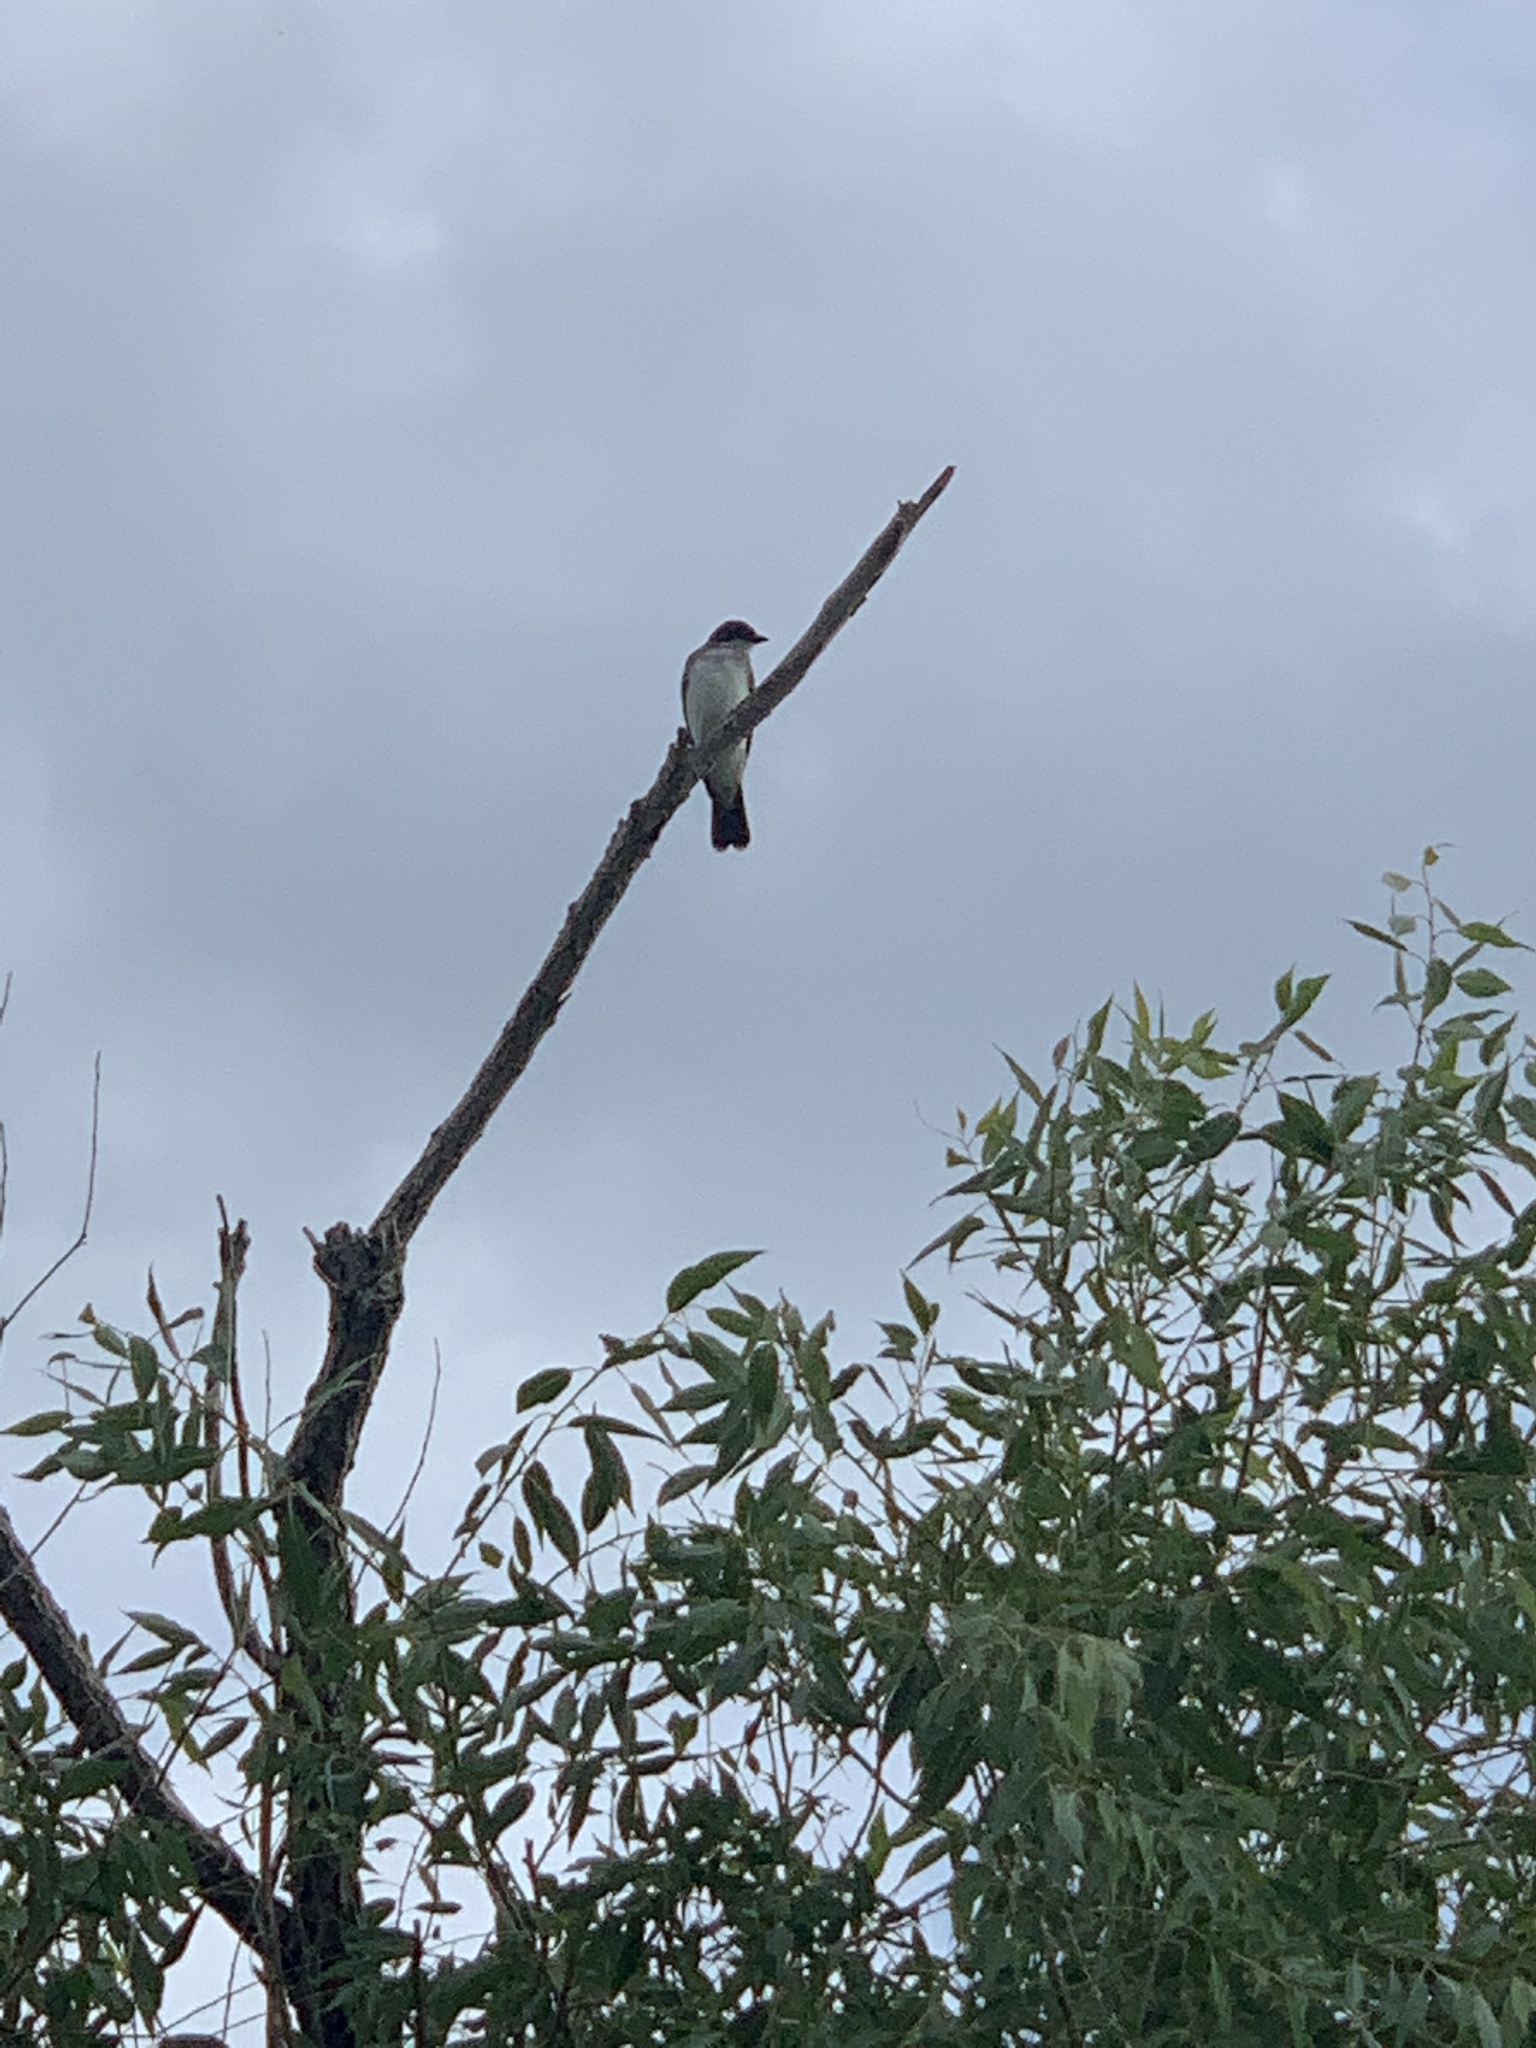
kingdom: Animalia
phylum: Chordata
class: Aves
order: Passeriformes
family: Tyrannidae
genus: Tyrannus
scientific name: Tyrannus tyrannus
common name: Eastern kingbird
